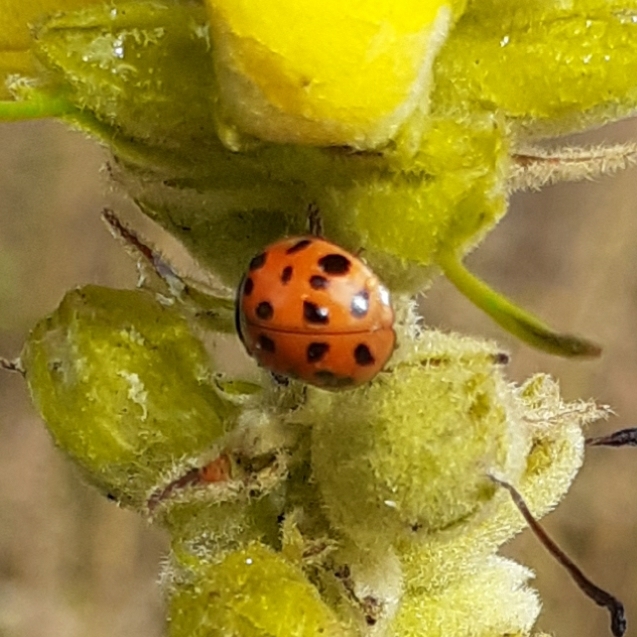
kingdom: Animalia
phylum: Arthropoda
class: Insecta
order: Coleoptera
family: Coccinellidae
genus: Harmonia
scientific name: Harmonia axyridis
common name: Harlequin ladybird
